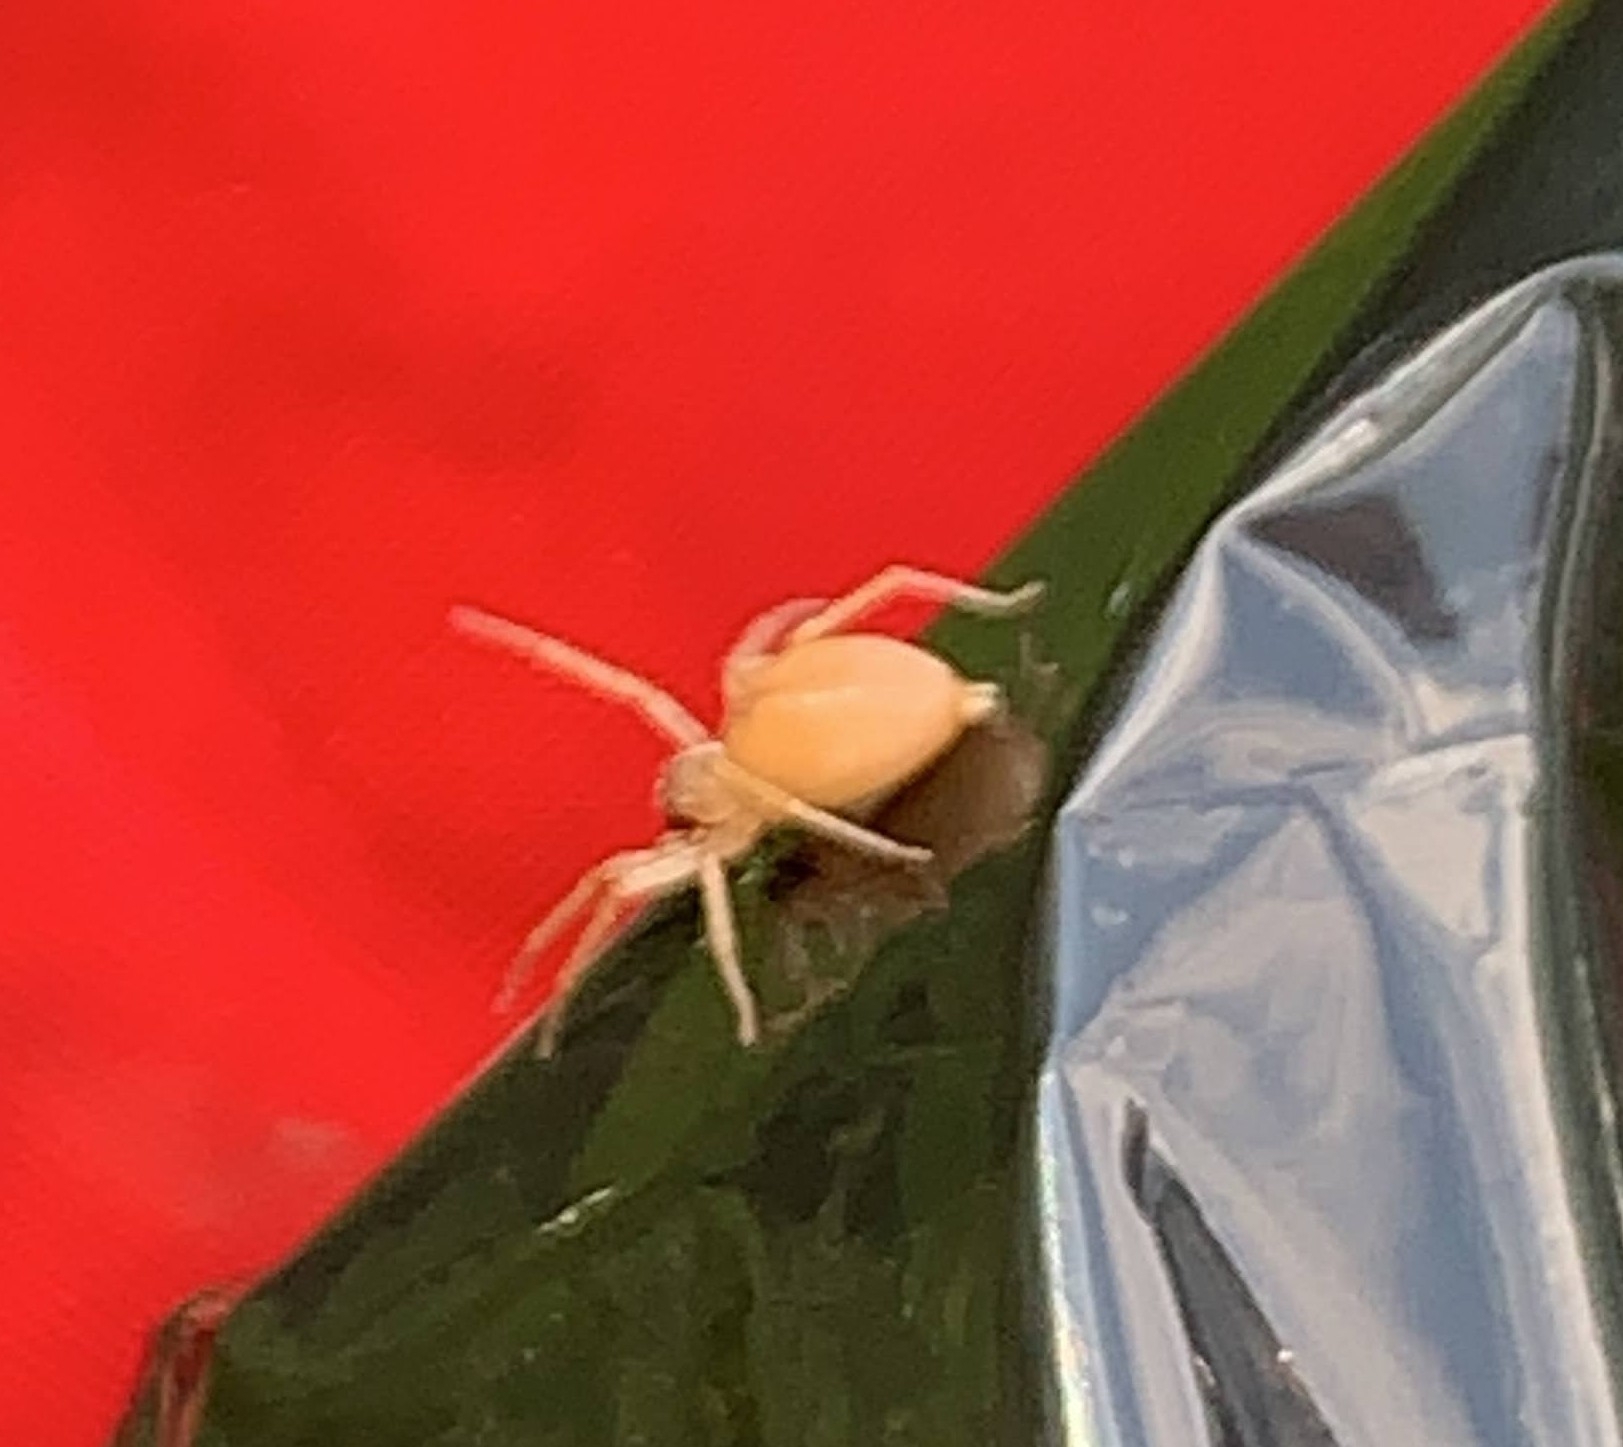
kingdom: Animalia
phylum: Arthropoda
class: Arachnida
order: Araneae
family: Cheiracanthiidae
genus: Cheiracanthium
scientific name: Cheiracanthium
